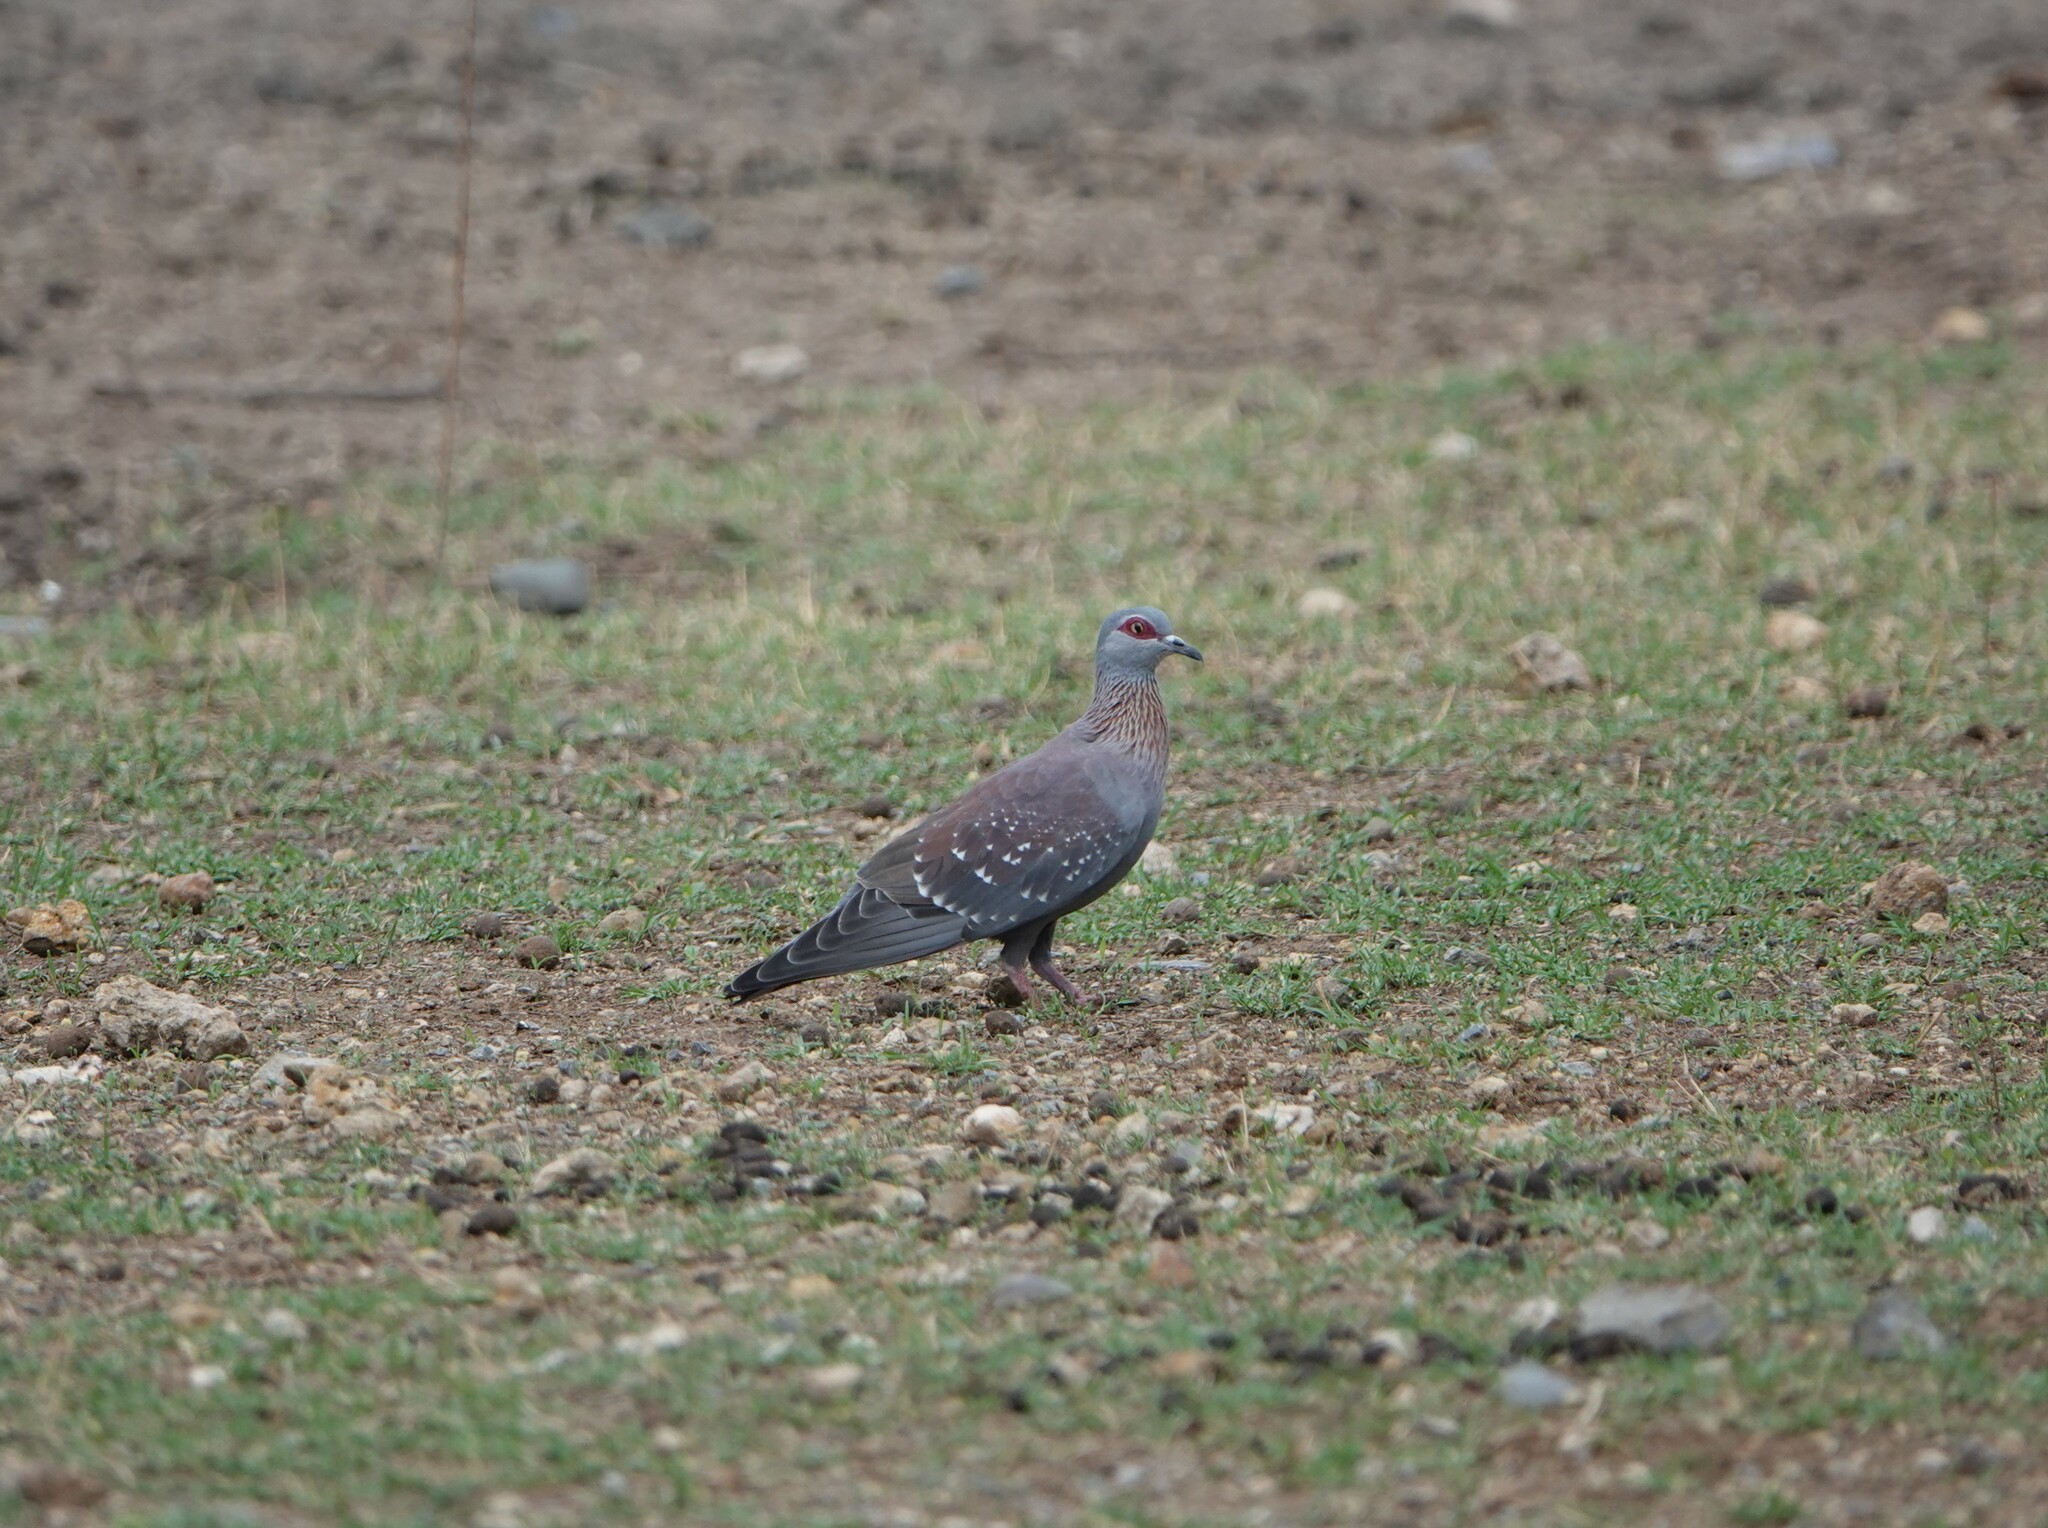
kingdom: Animalia
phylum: Chordata
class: Aves
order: Columbiformes
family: Columbidae
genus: Columba
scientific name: Columba guinea
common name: Speckled pigeon
